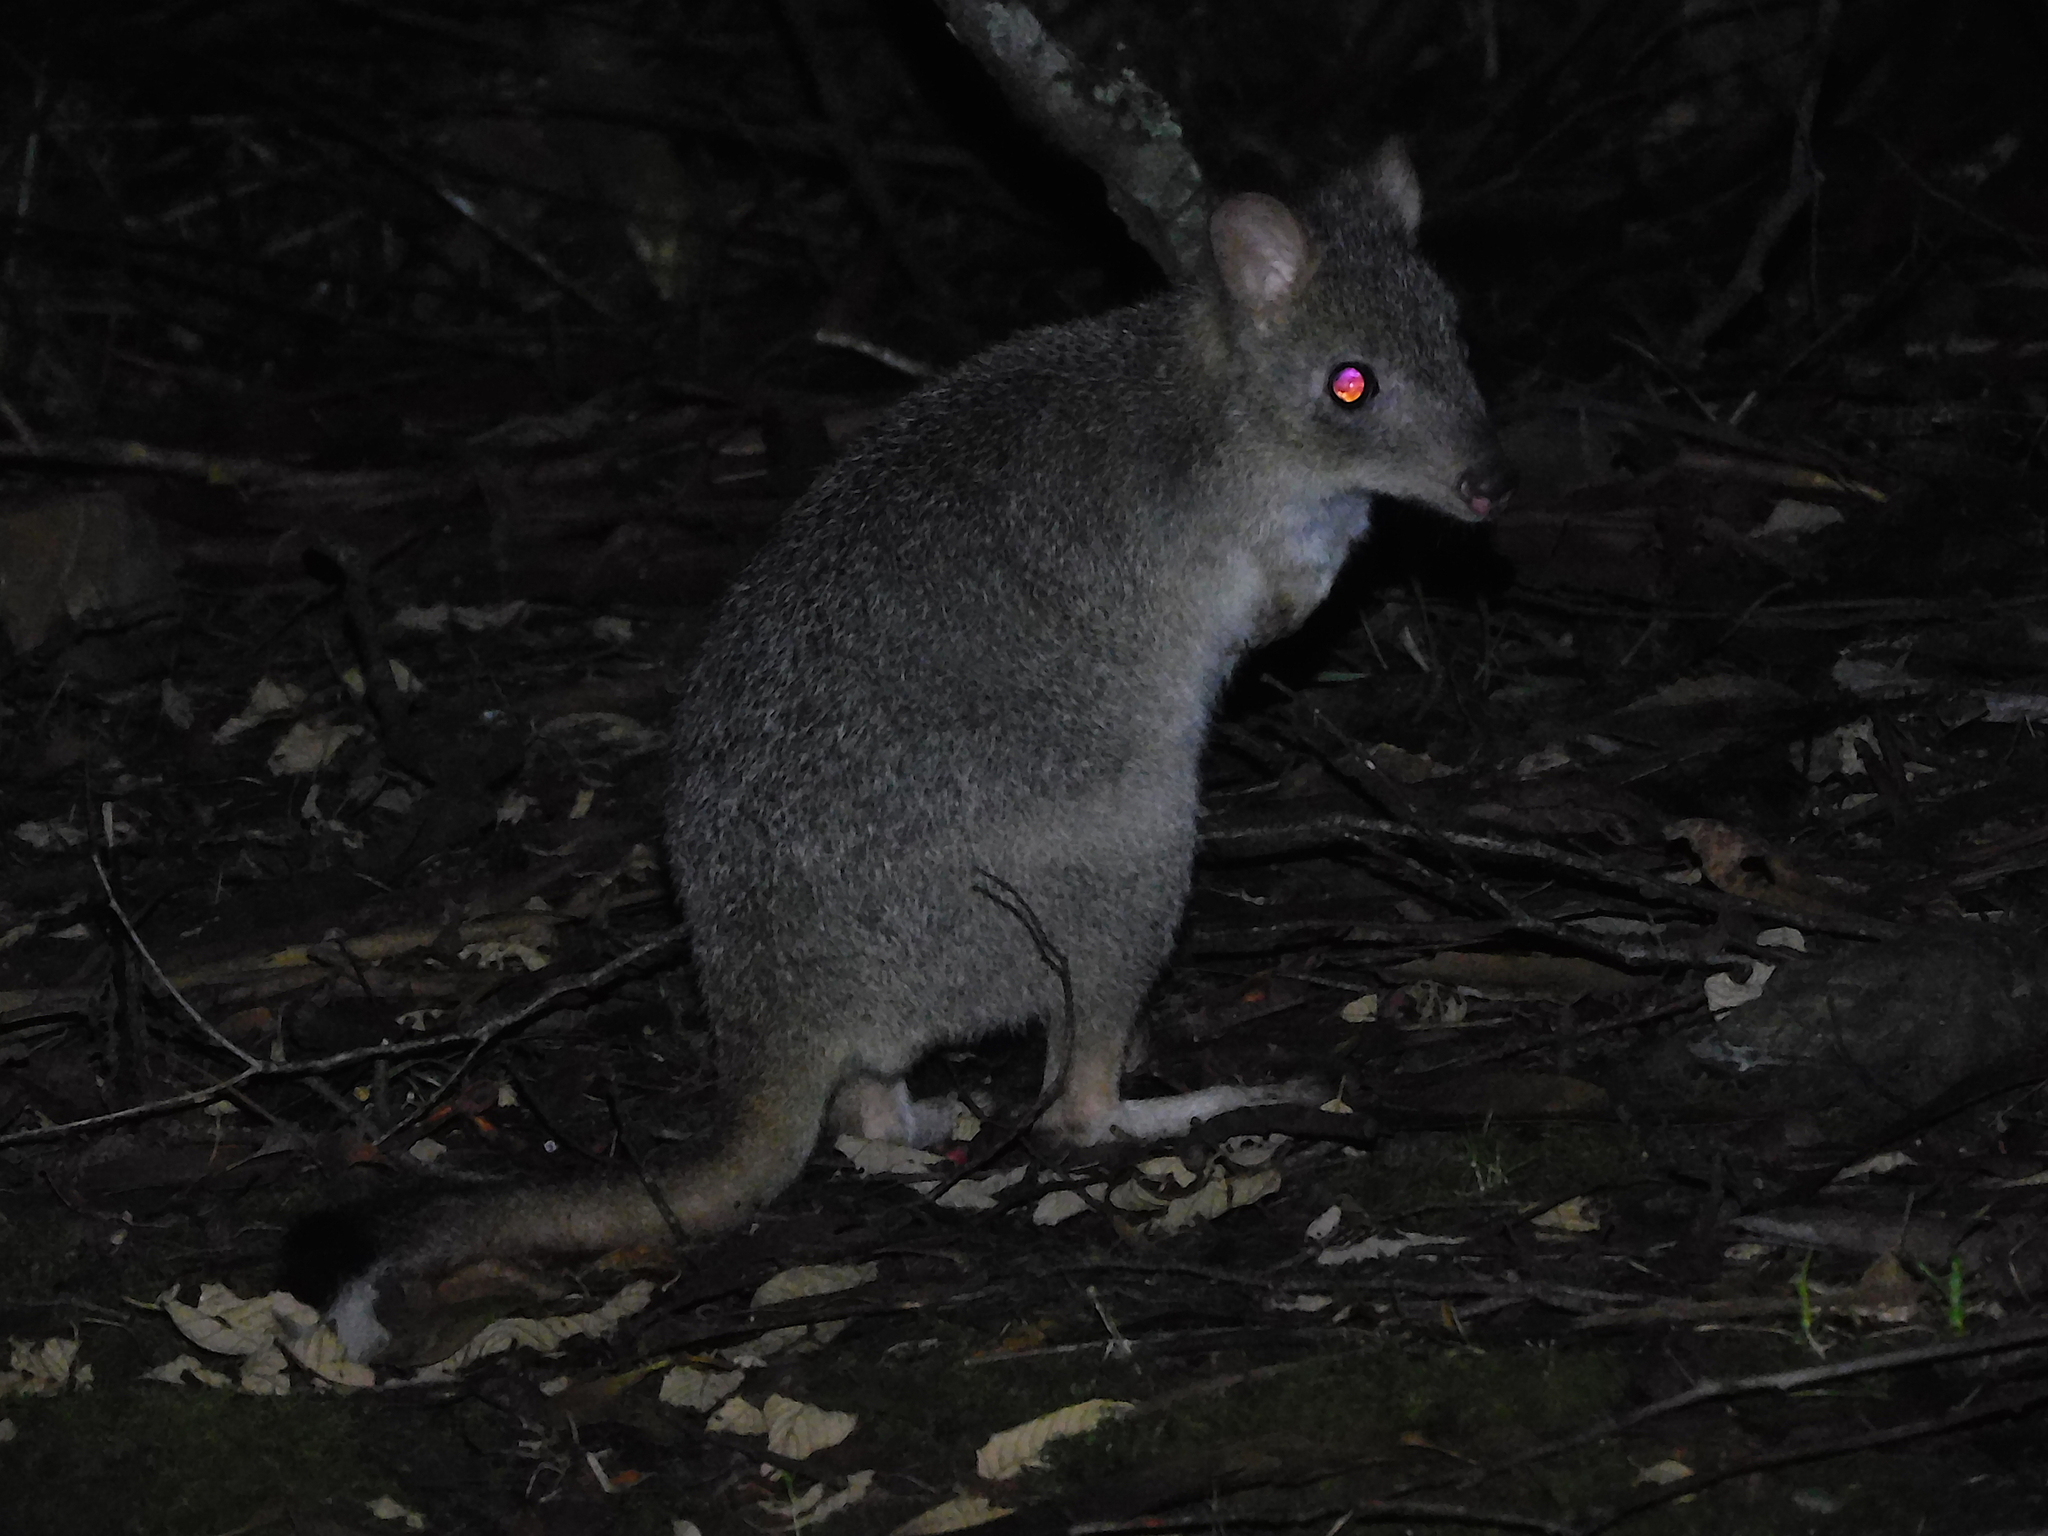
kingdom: Animalia
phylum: Chordata
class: Mammalia
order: Diprotodontia
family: Potoroidae
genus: Bettongia
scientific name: Bettongia gaimardi
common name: Eastern bettong
